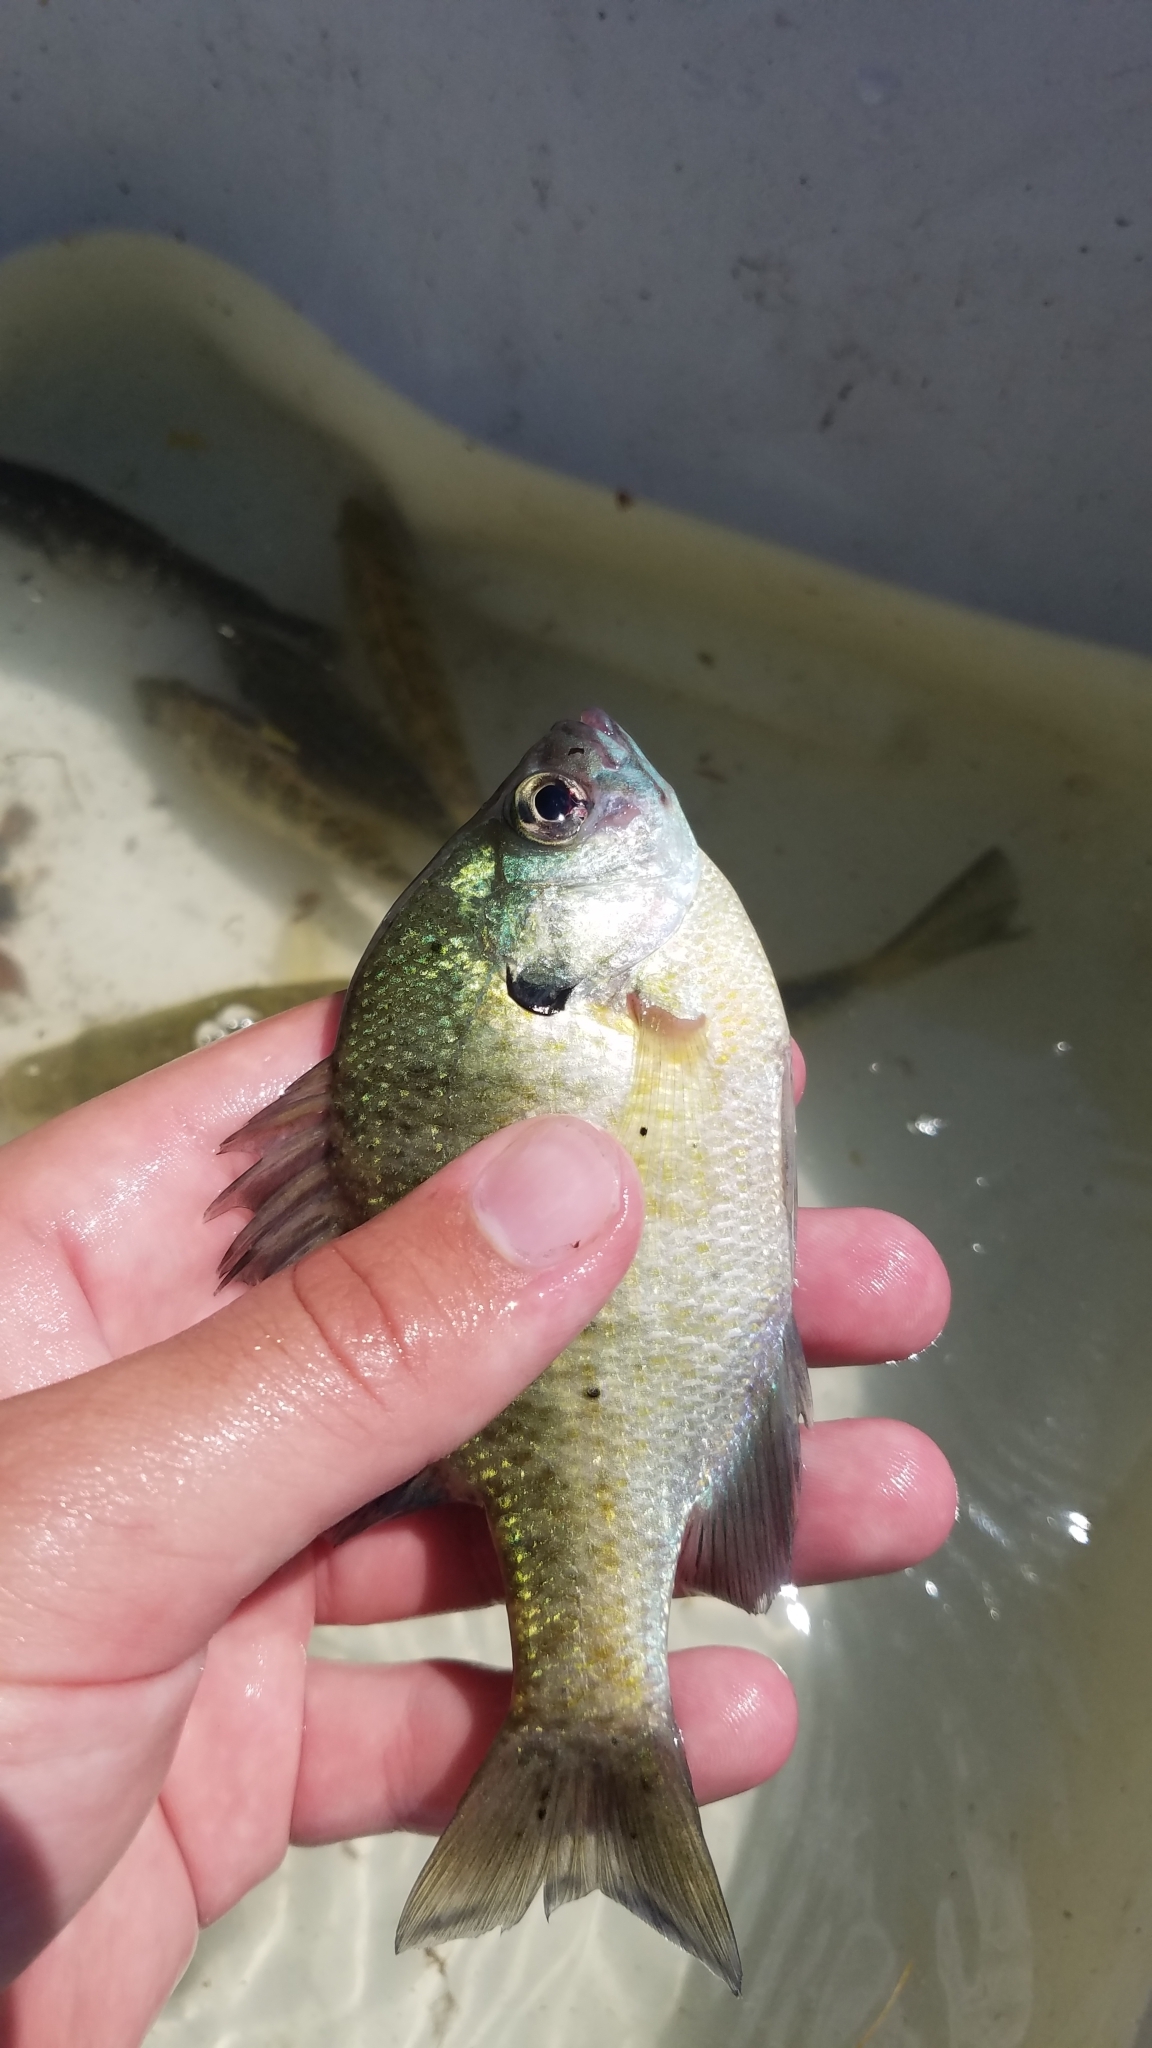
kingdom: Animalia
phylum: Chordata
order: Perciformes
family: Centrarchidae
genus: Lepomis
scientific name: Lepomis macrochirus
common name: Bluegill
